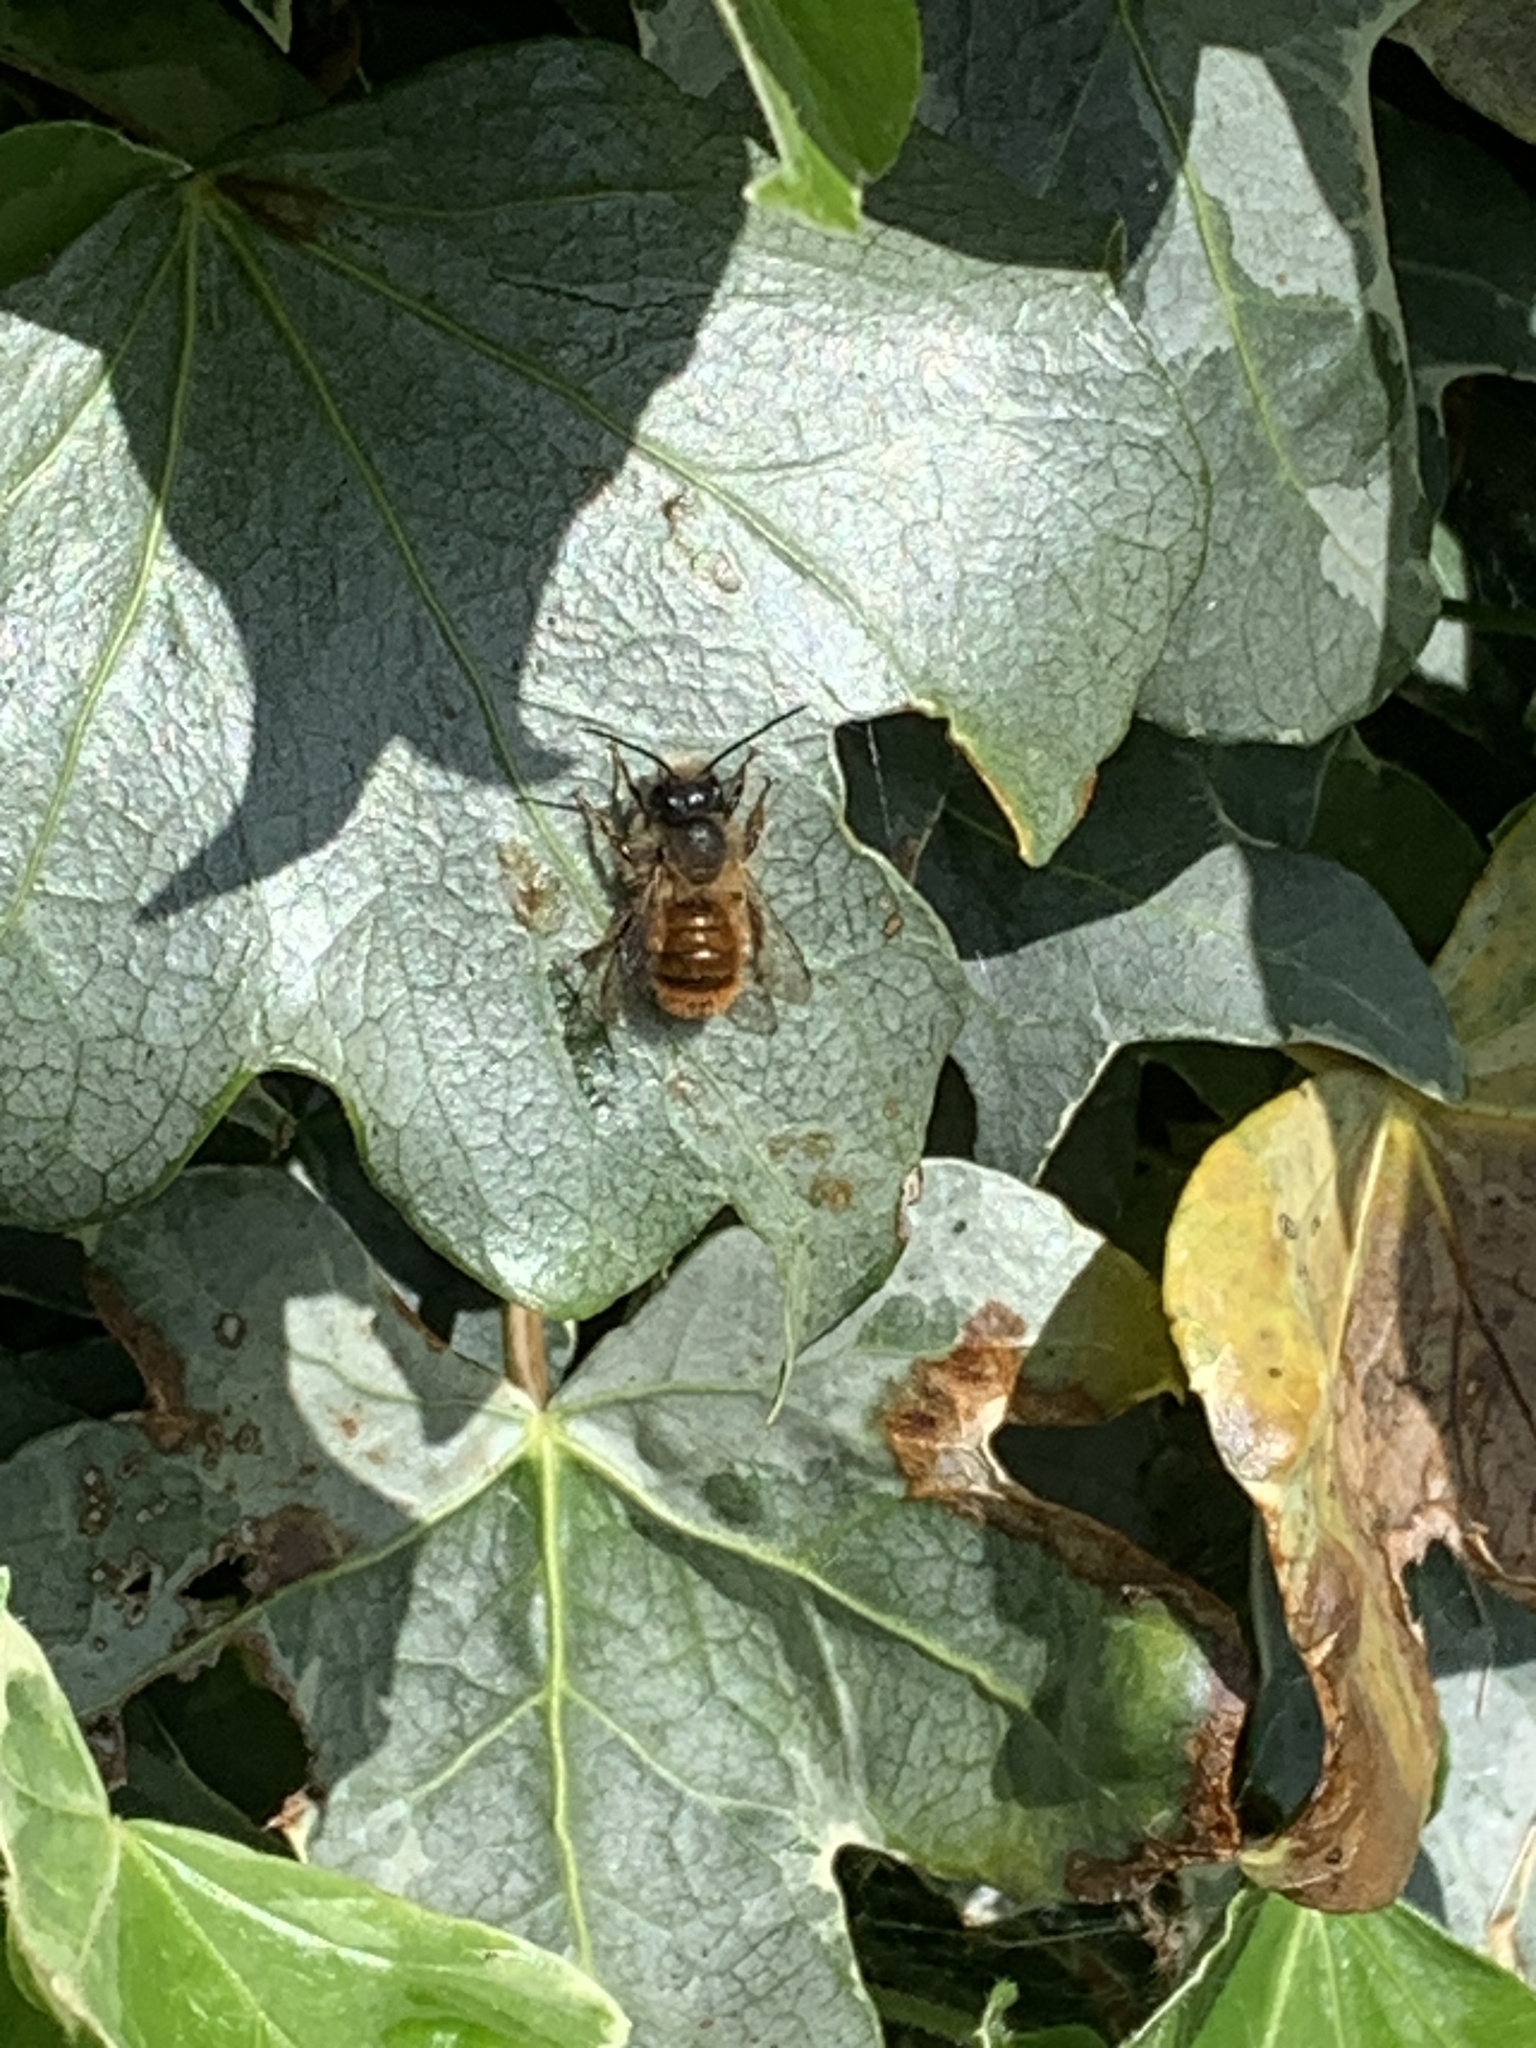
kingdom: Animalia
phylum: Arthropoda
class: Insecta
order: Hymenoptera
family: Megachilidae
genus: Osmia
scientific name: Osmia bicornis
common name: Red mason bee
